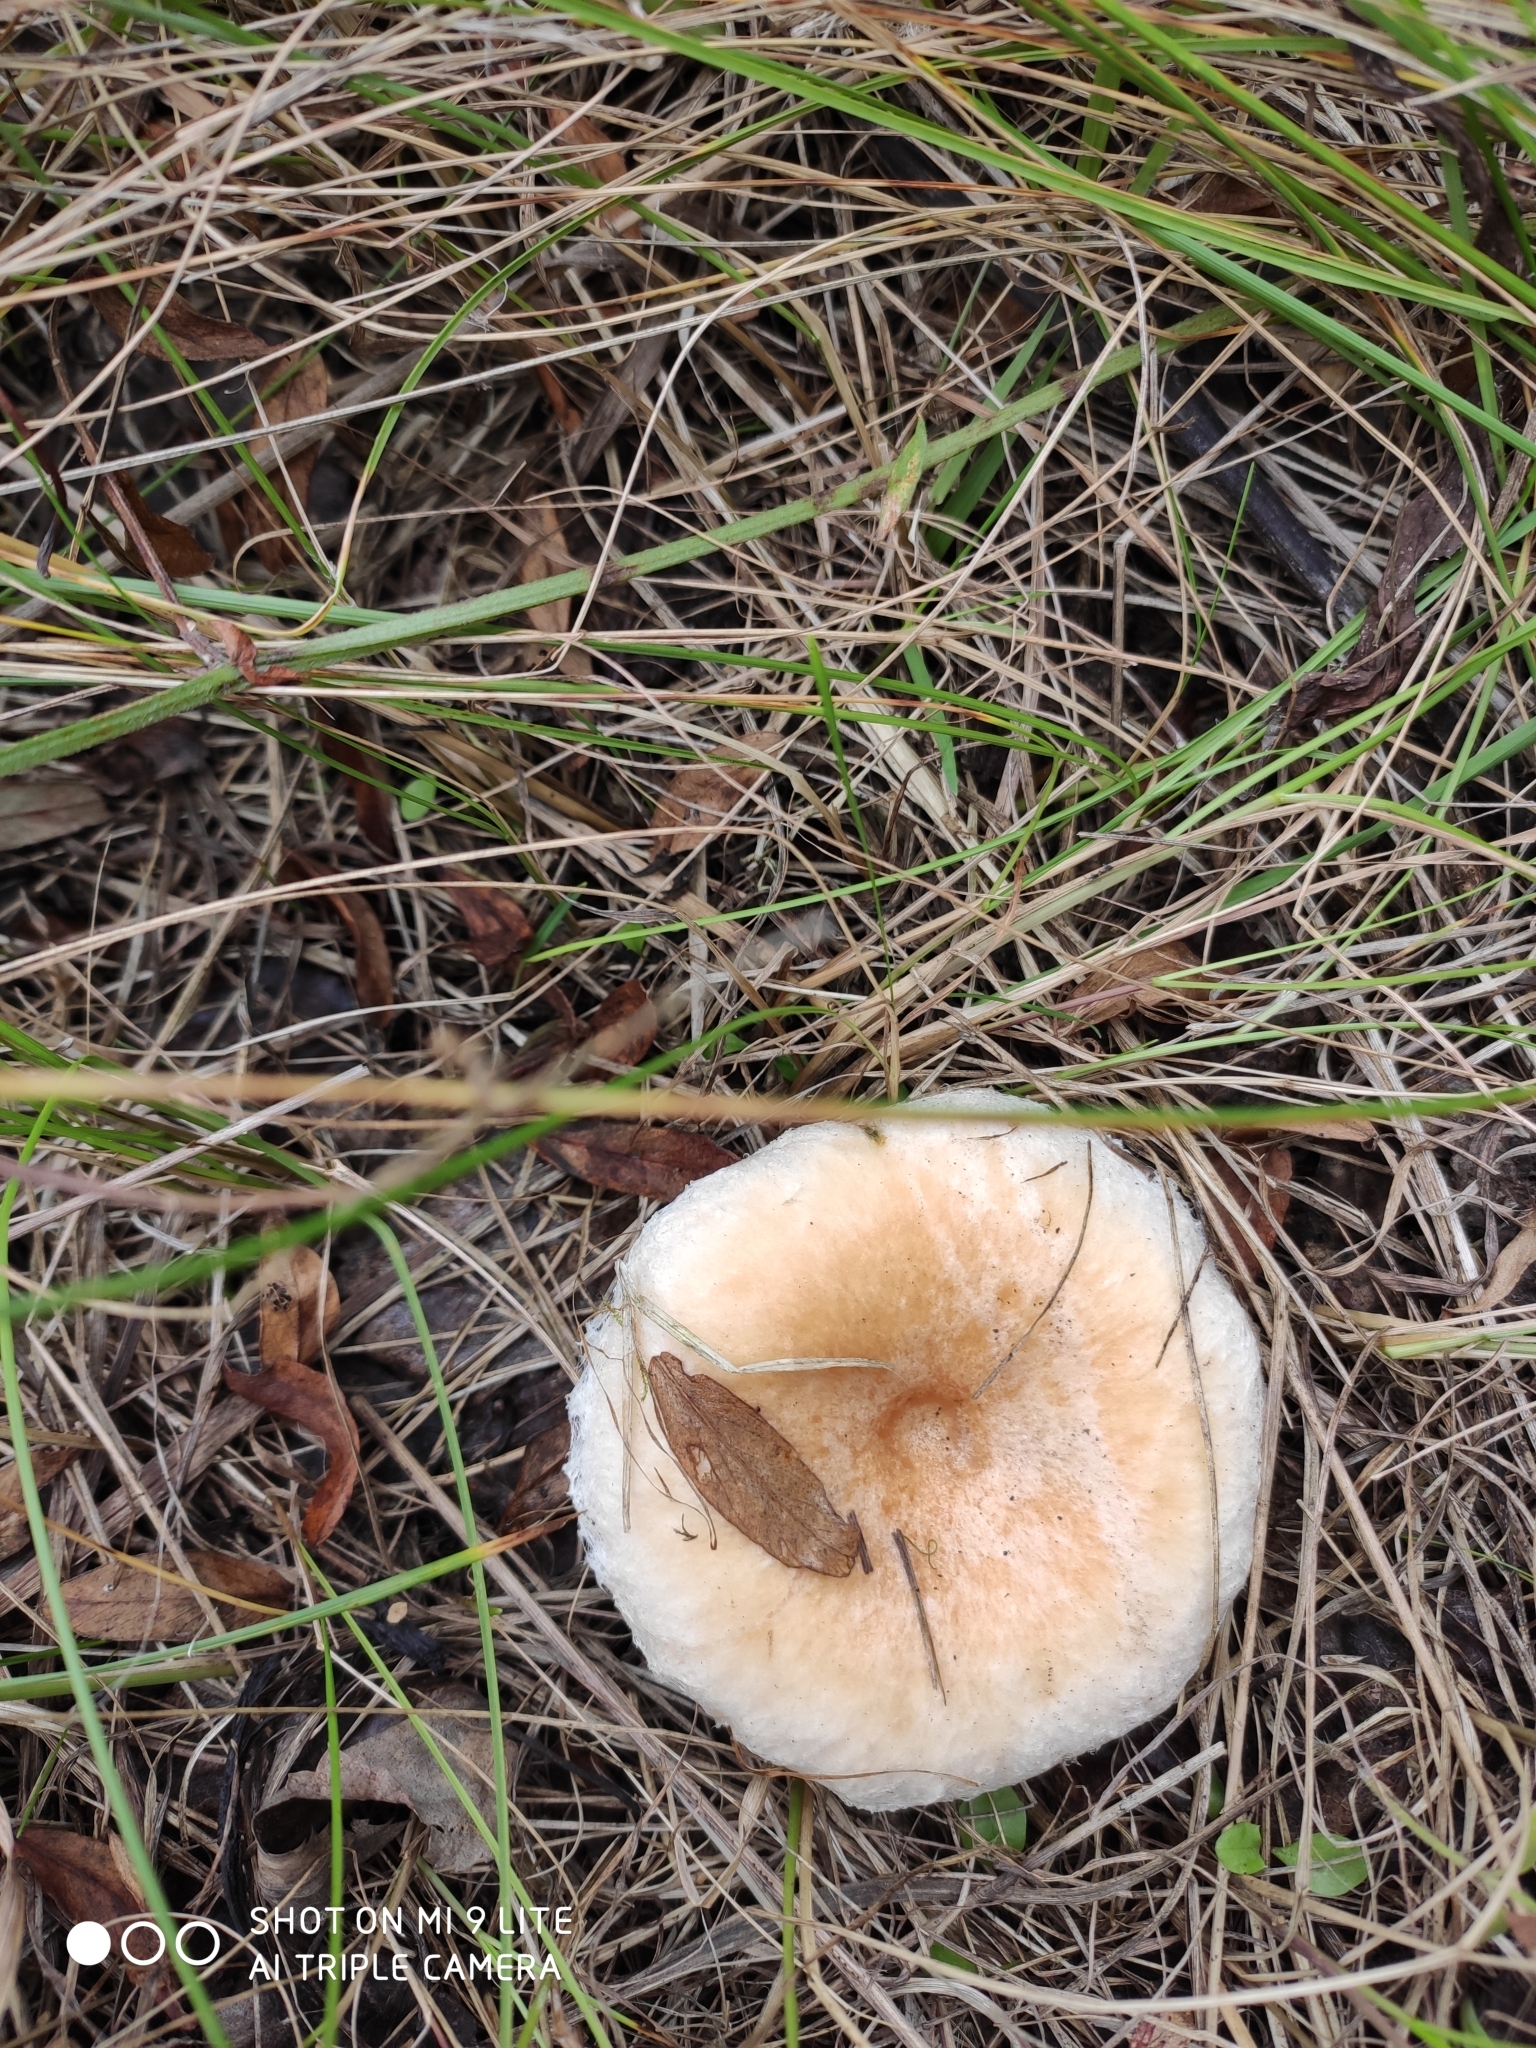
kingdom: Fungi
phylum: Basidiomycota
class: Agaricomycetes
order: Russulales
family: Russulaceae
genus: Lactarius
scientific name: Lactarius pubescens
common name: Bearded milkcap
